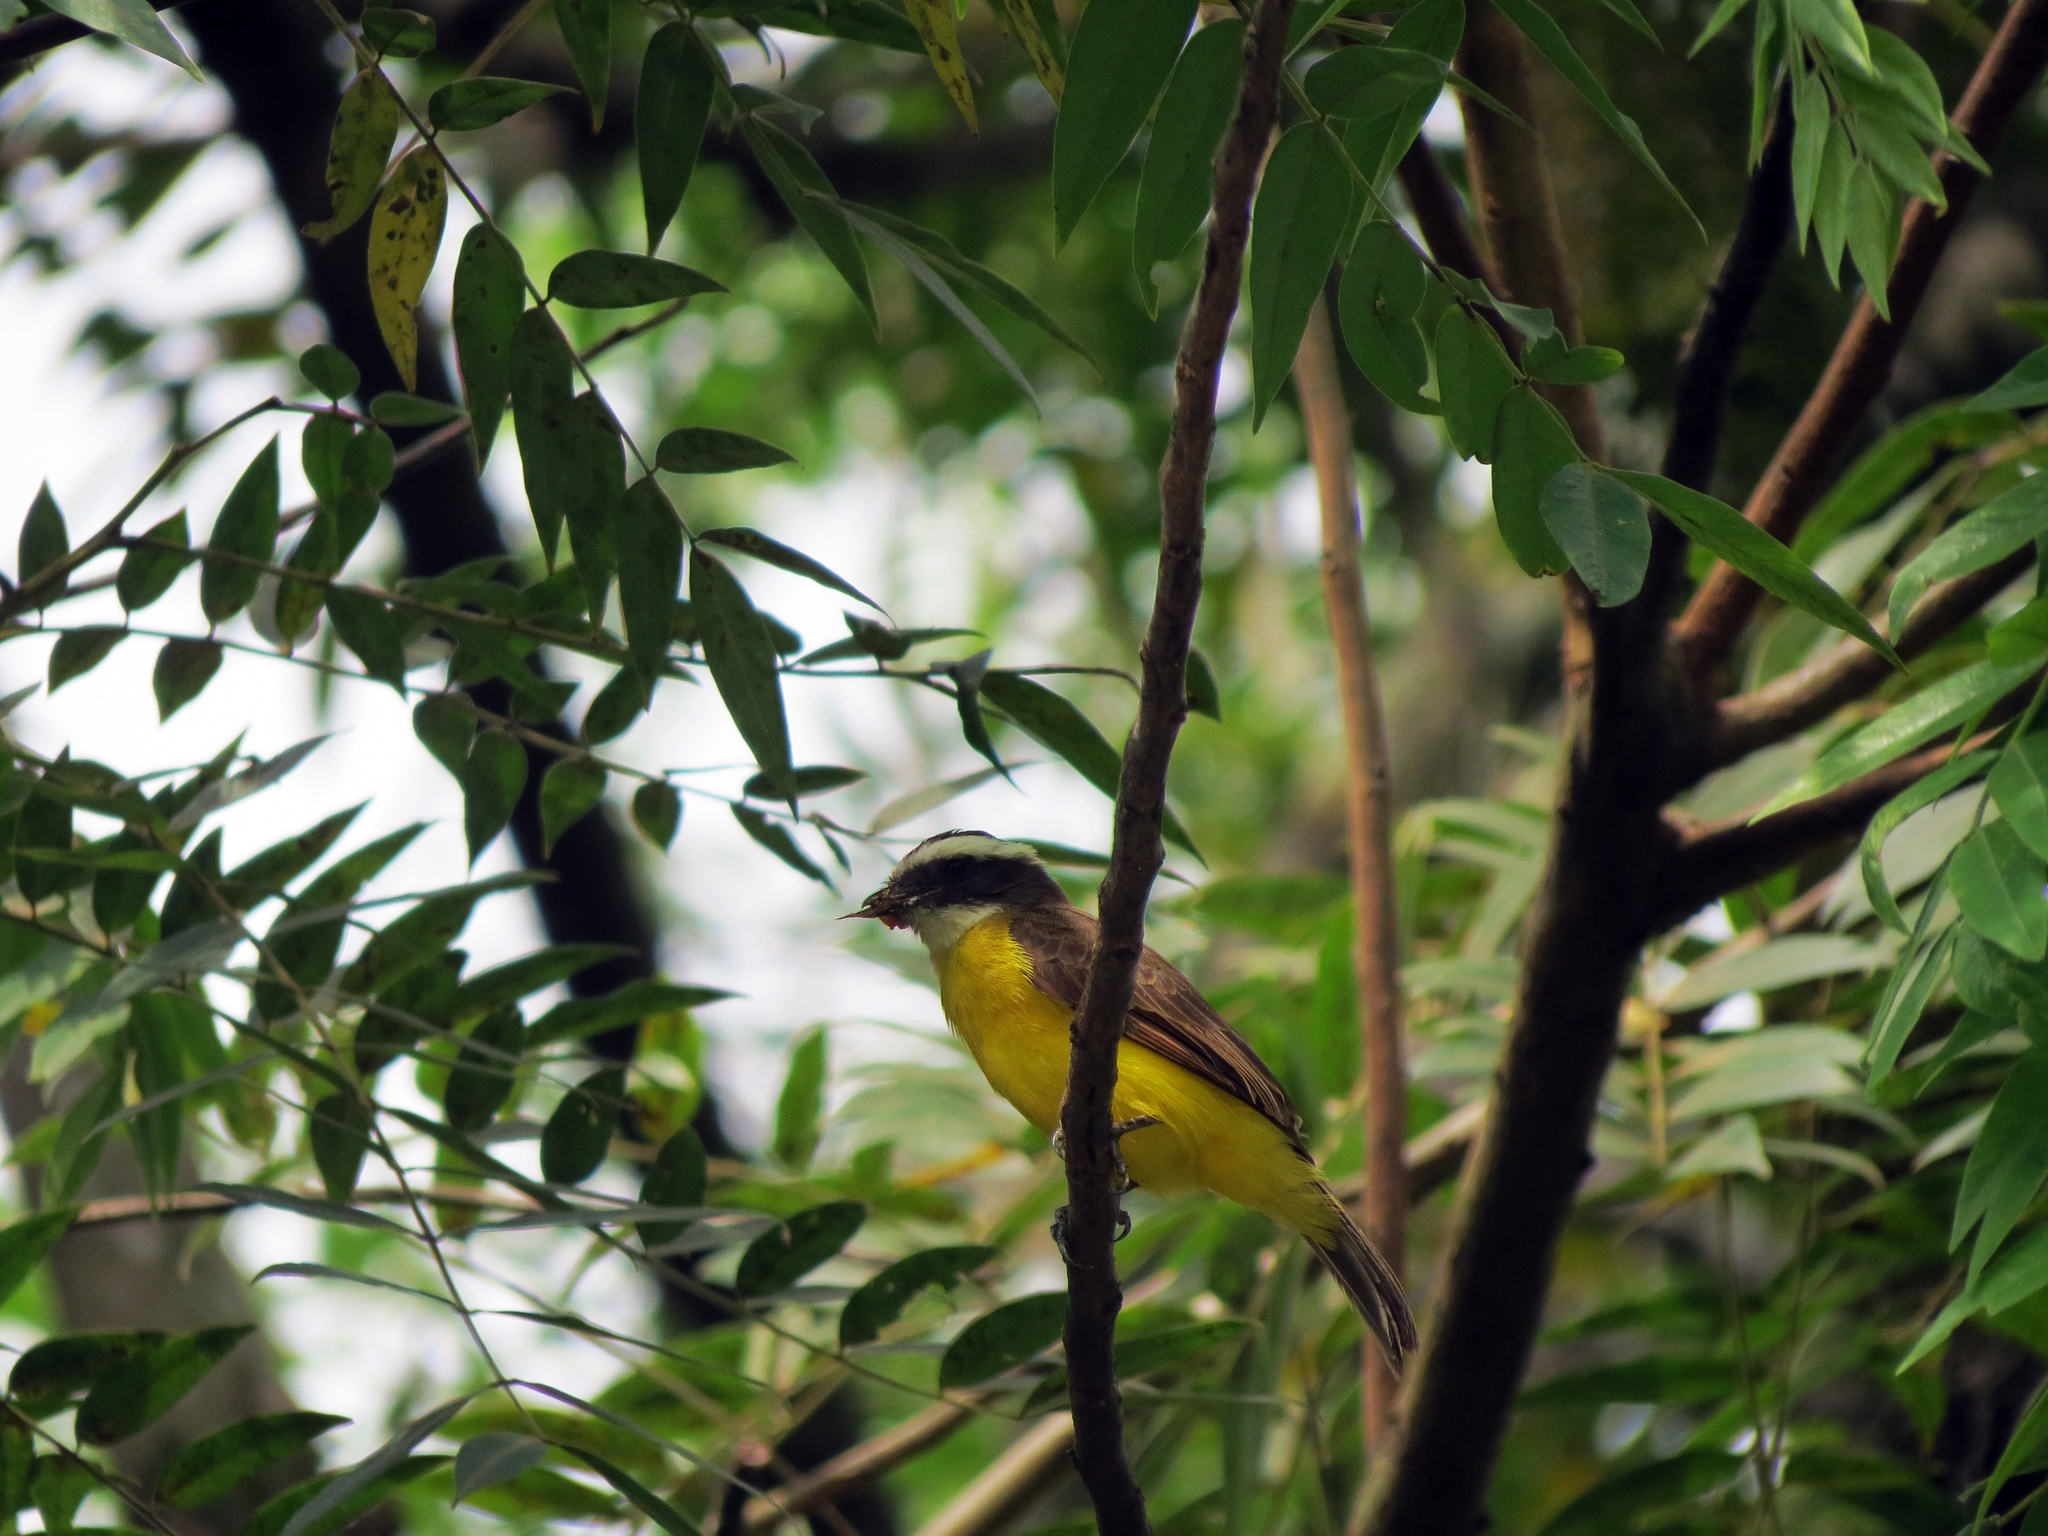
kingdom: Animalia
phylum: Chordata
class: Aves
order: Passeriformes
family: Tyrannidae
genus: Myiozetetes
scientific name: Myiozetetes cayanensis
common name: Rusty-margined flycatcher
